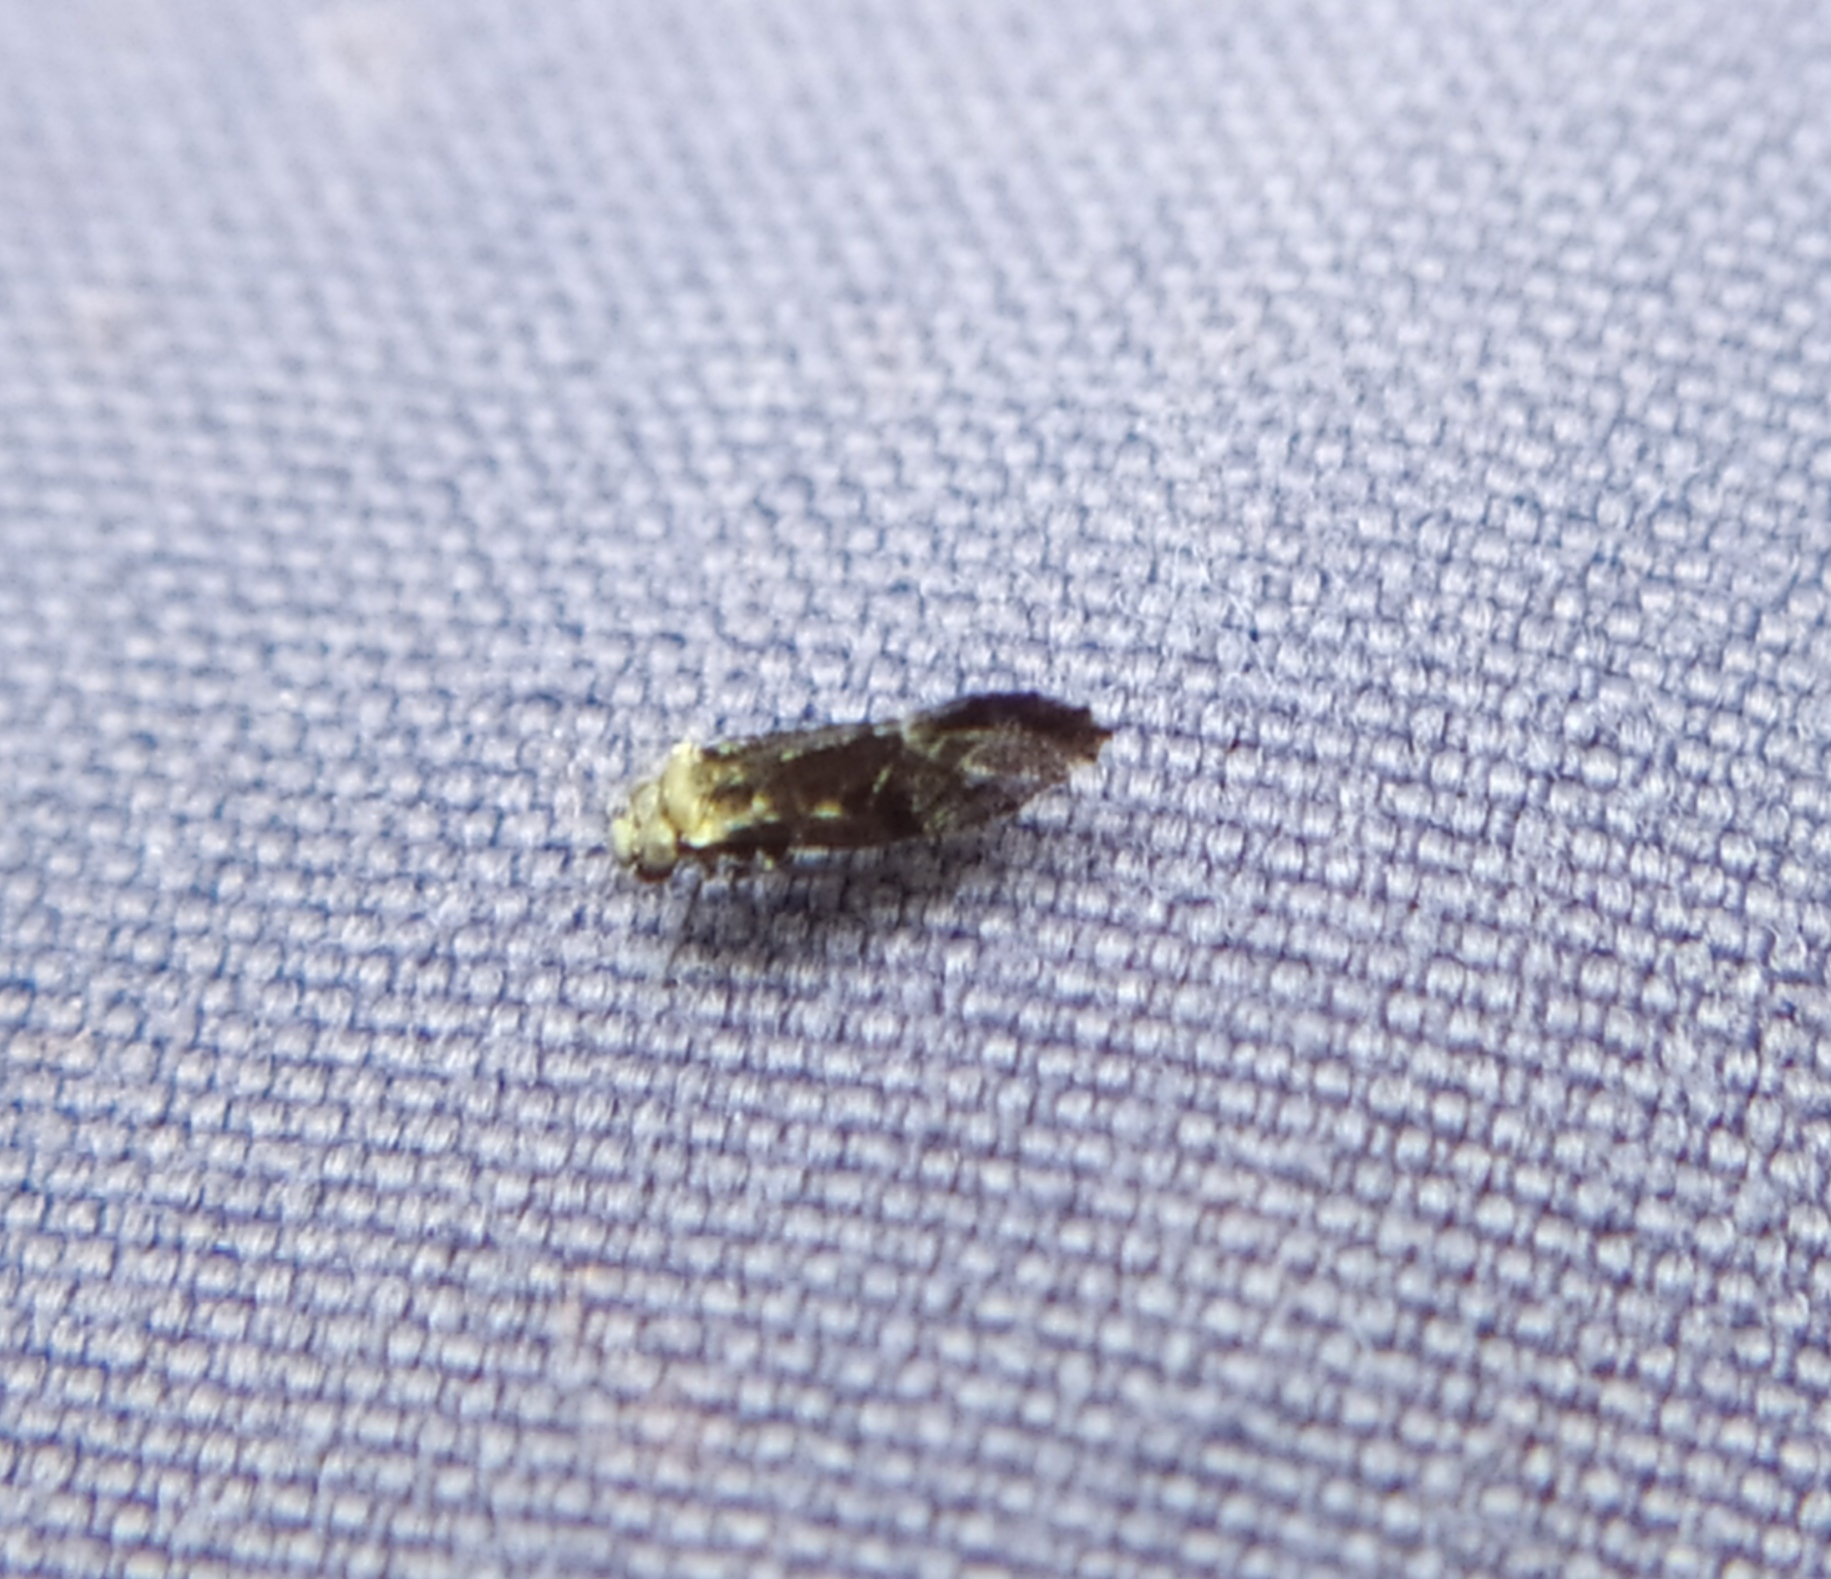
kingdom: Animalia
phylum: Arthropoda
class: Insecta
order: Psocodea
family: Psocidae
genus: Loensia
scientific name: Loensia pearmani
